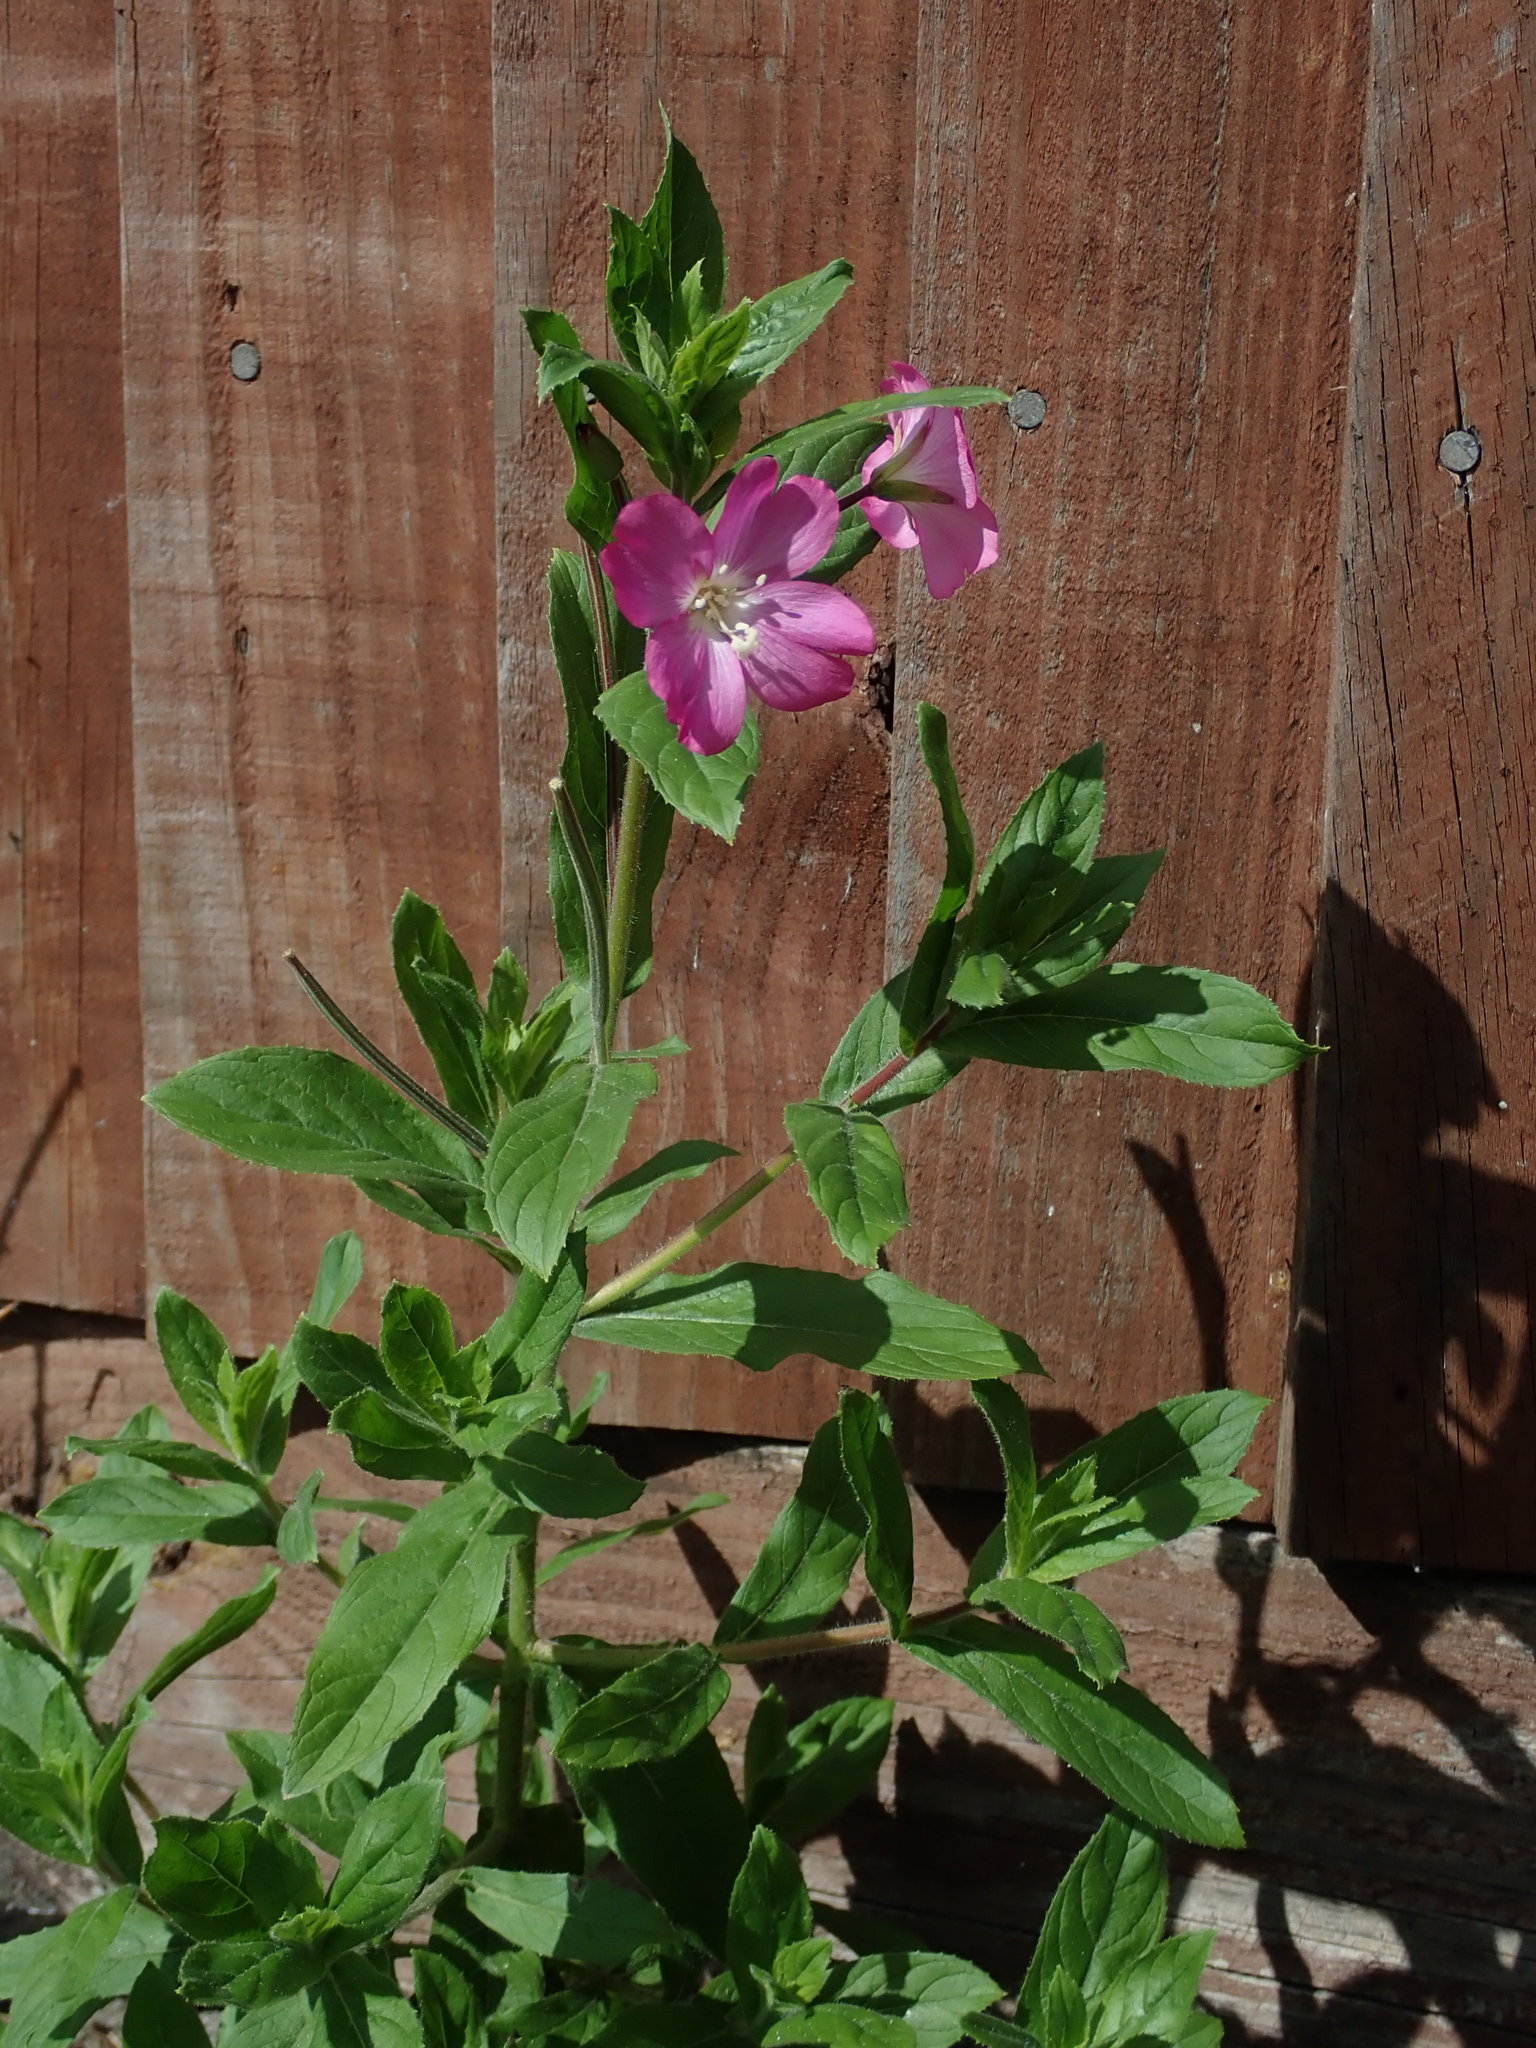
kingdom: Plantae
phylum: Tracheophyta
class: Magnoliopsida
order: Myrtales
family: Onagraceae
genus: Epilobium
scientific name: Epilobium hirsutum
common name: Great willowherb
